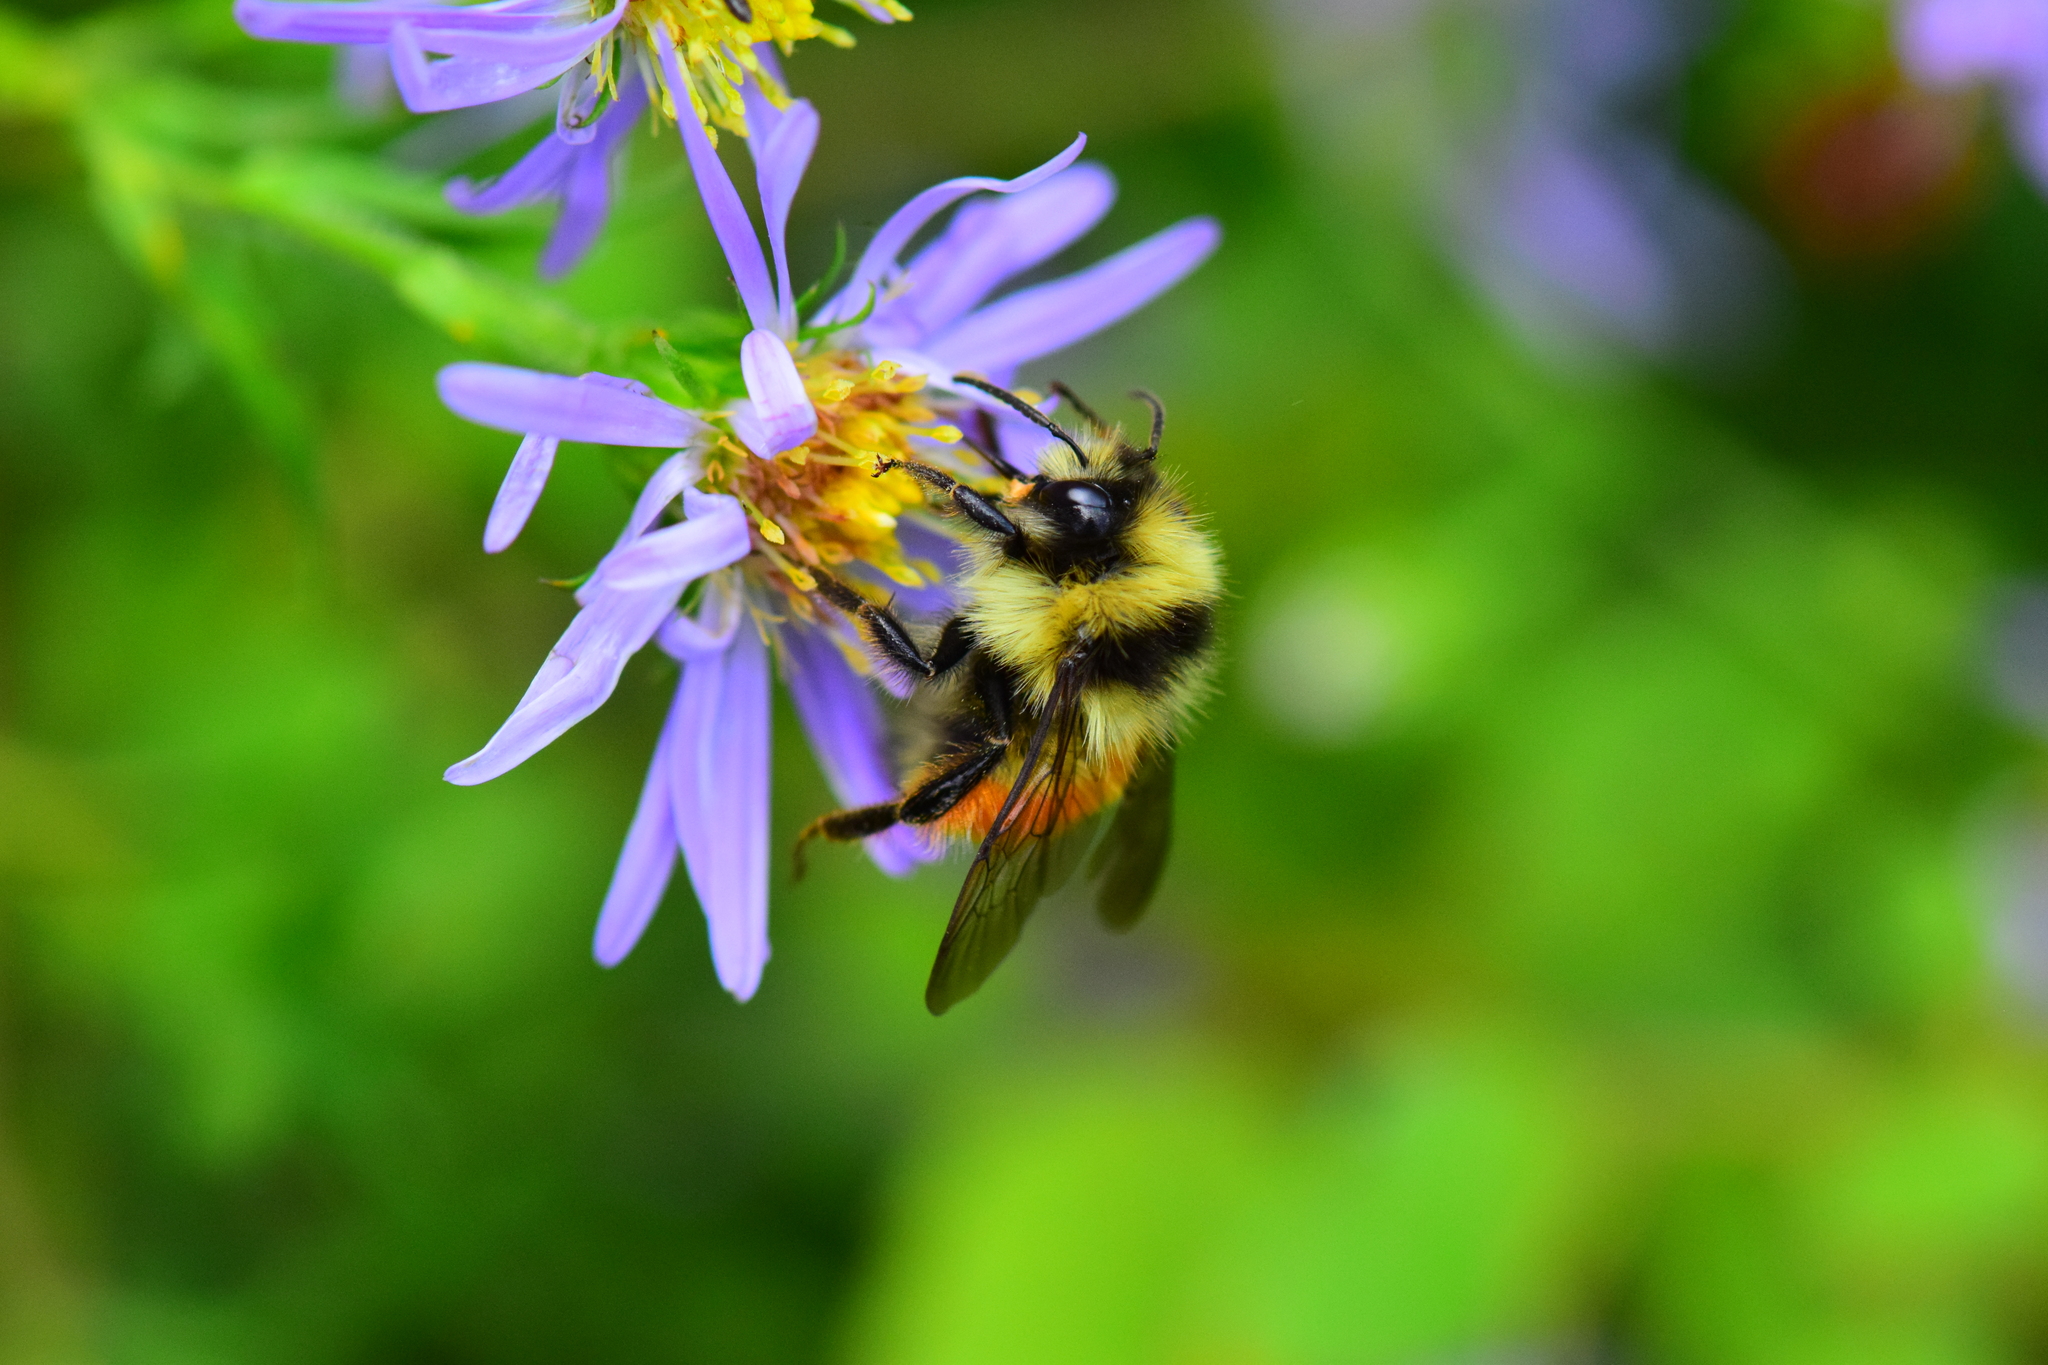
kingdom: Animalia
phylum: Arthropoda
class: Insecta
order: Hymenoptera
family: Apidae
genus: Bombus
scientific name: Bombus ternarius
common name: Tri-colored bumble bee
